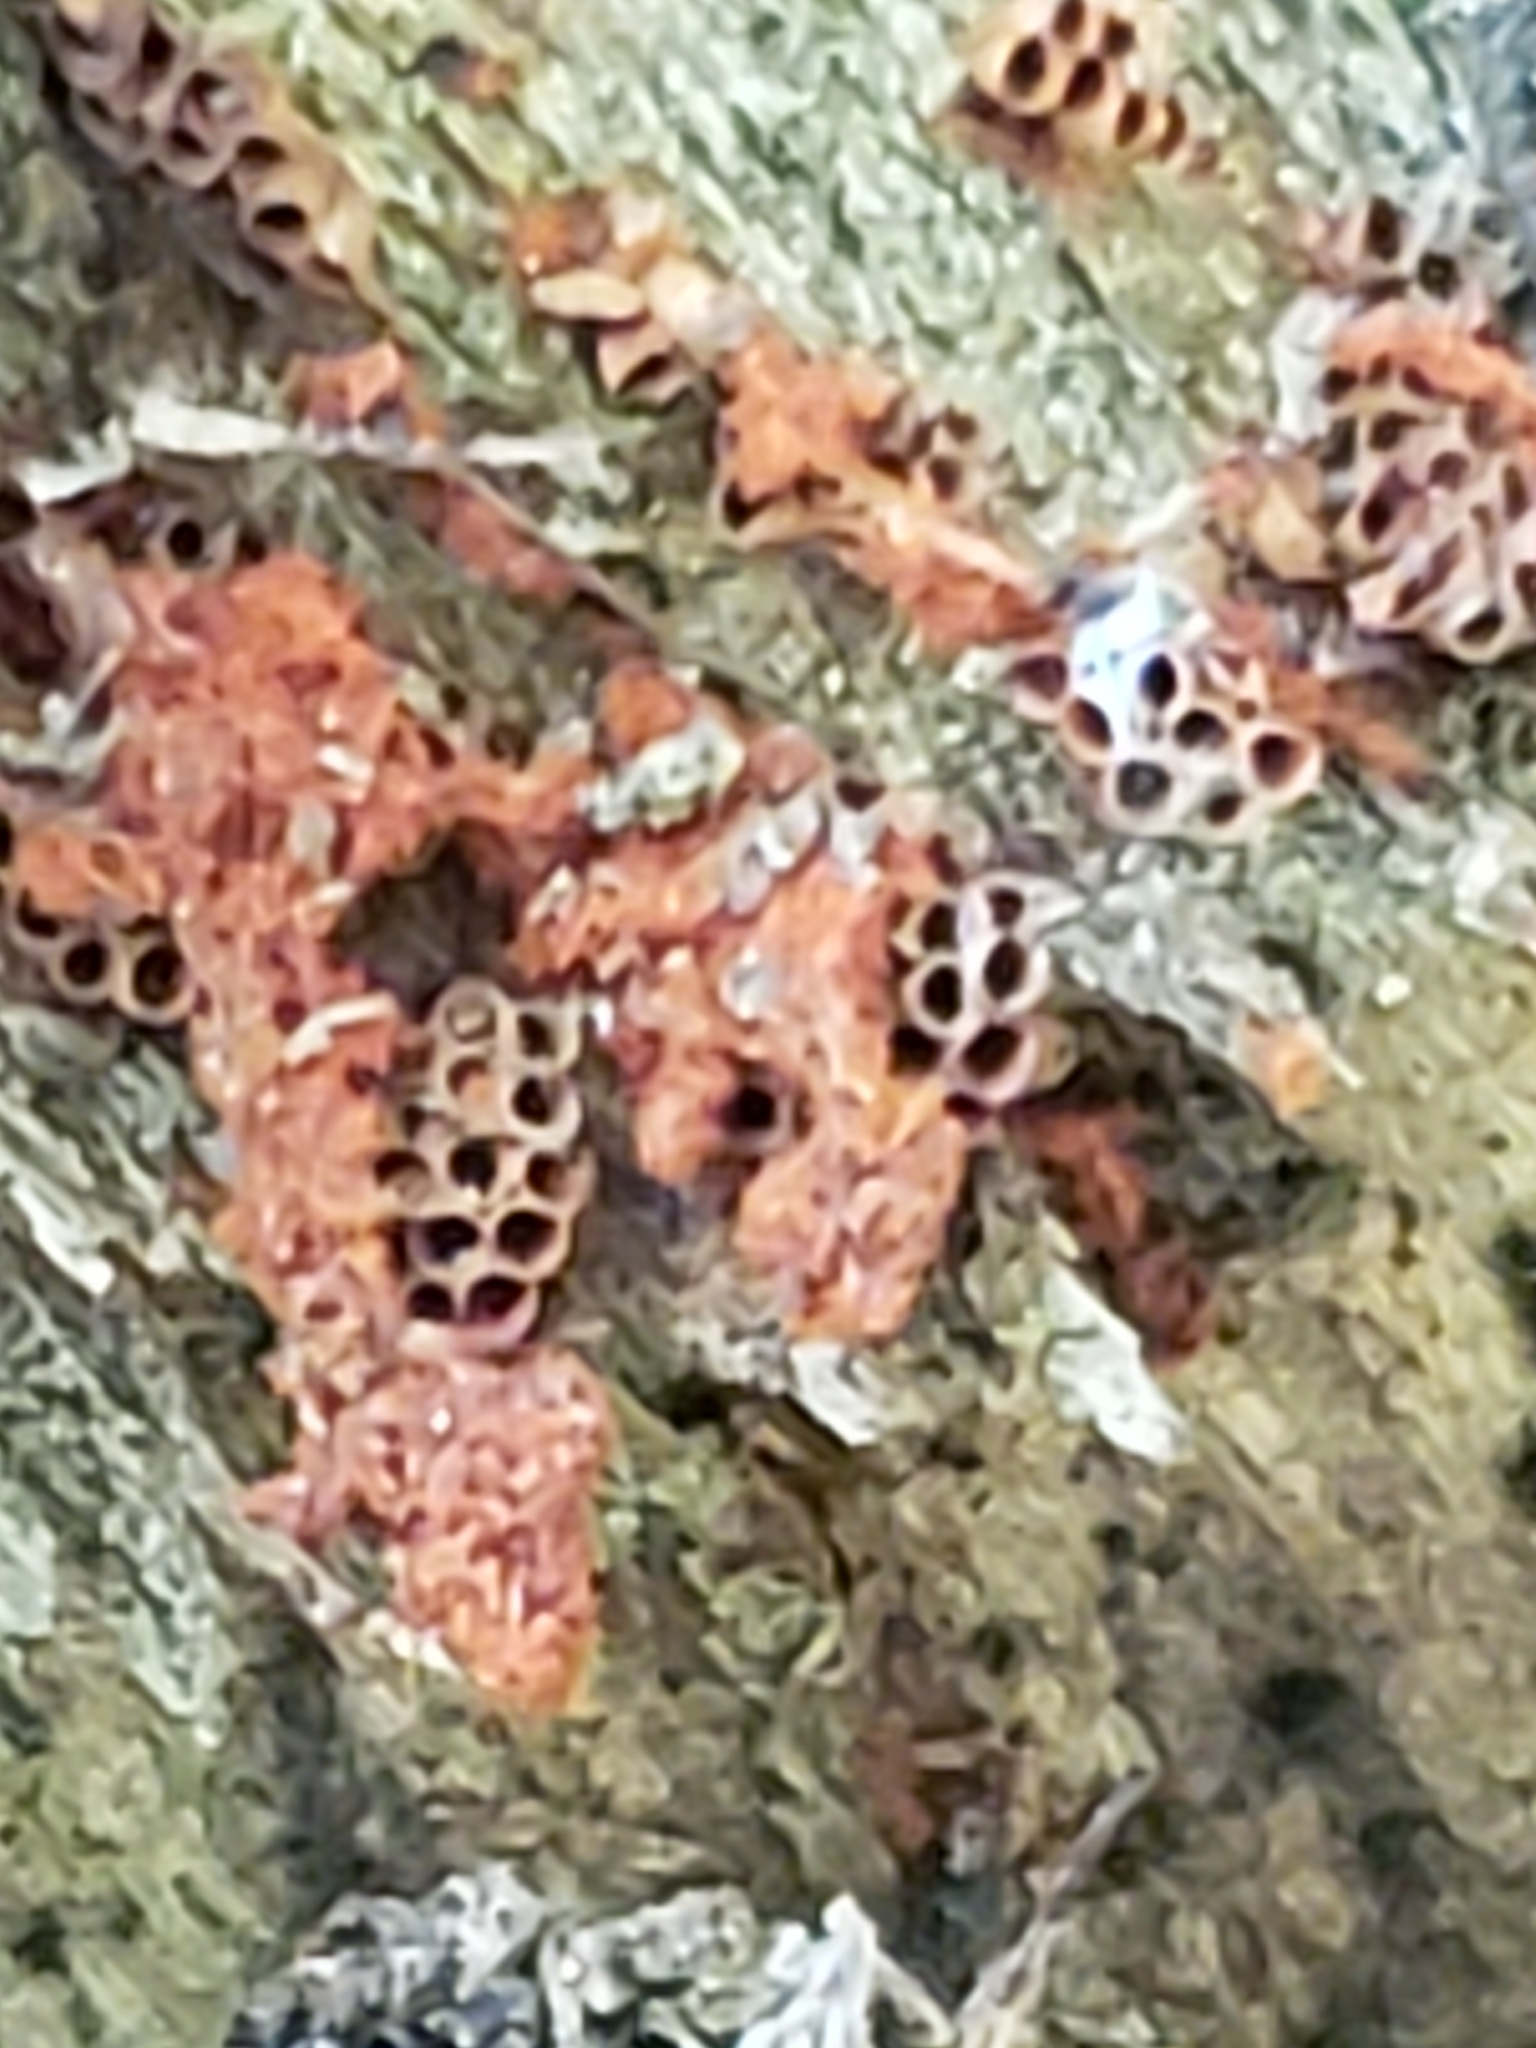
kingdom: Protozoa
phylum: Mycetozoa
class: Myxomycetes
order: Trichiales
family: Trichiaceae
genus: Metatrichia
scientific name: Metatrichia vesparia
